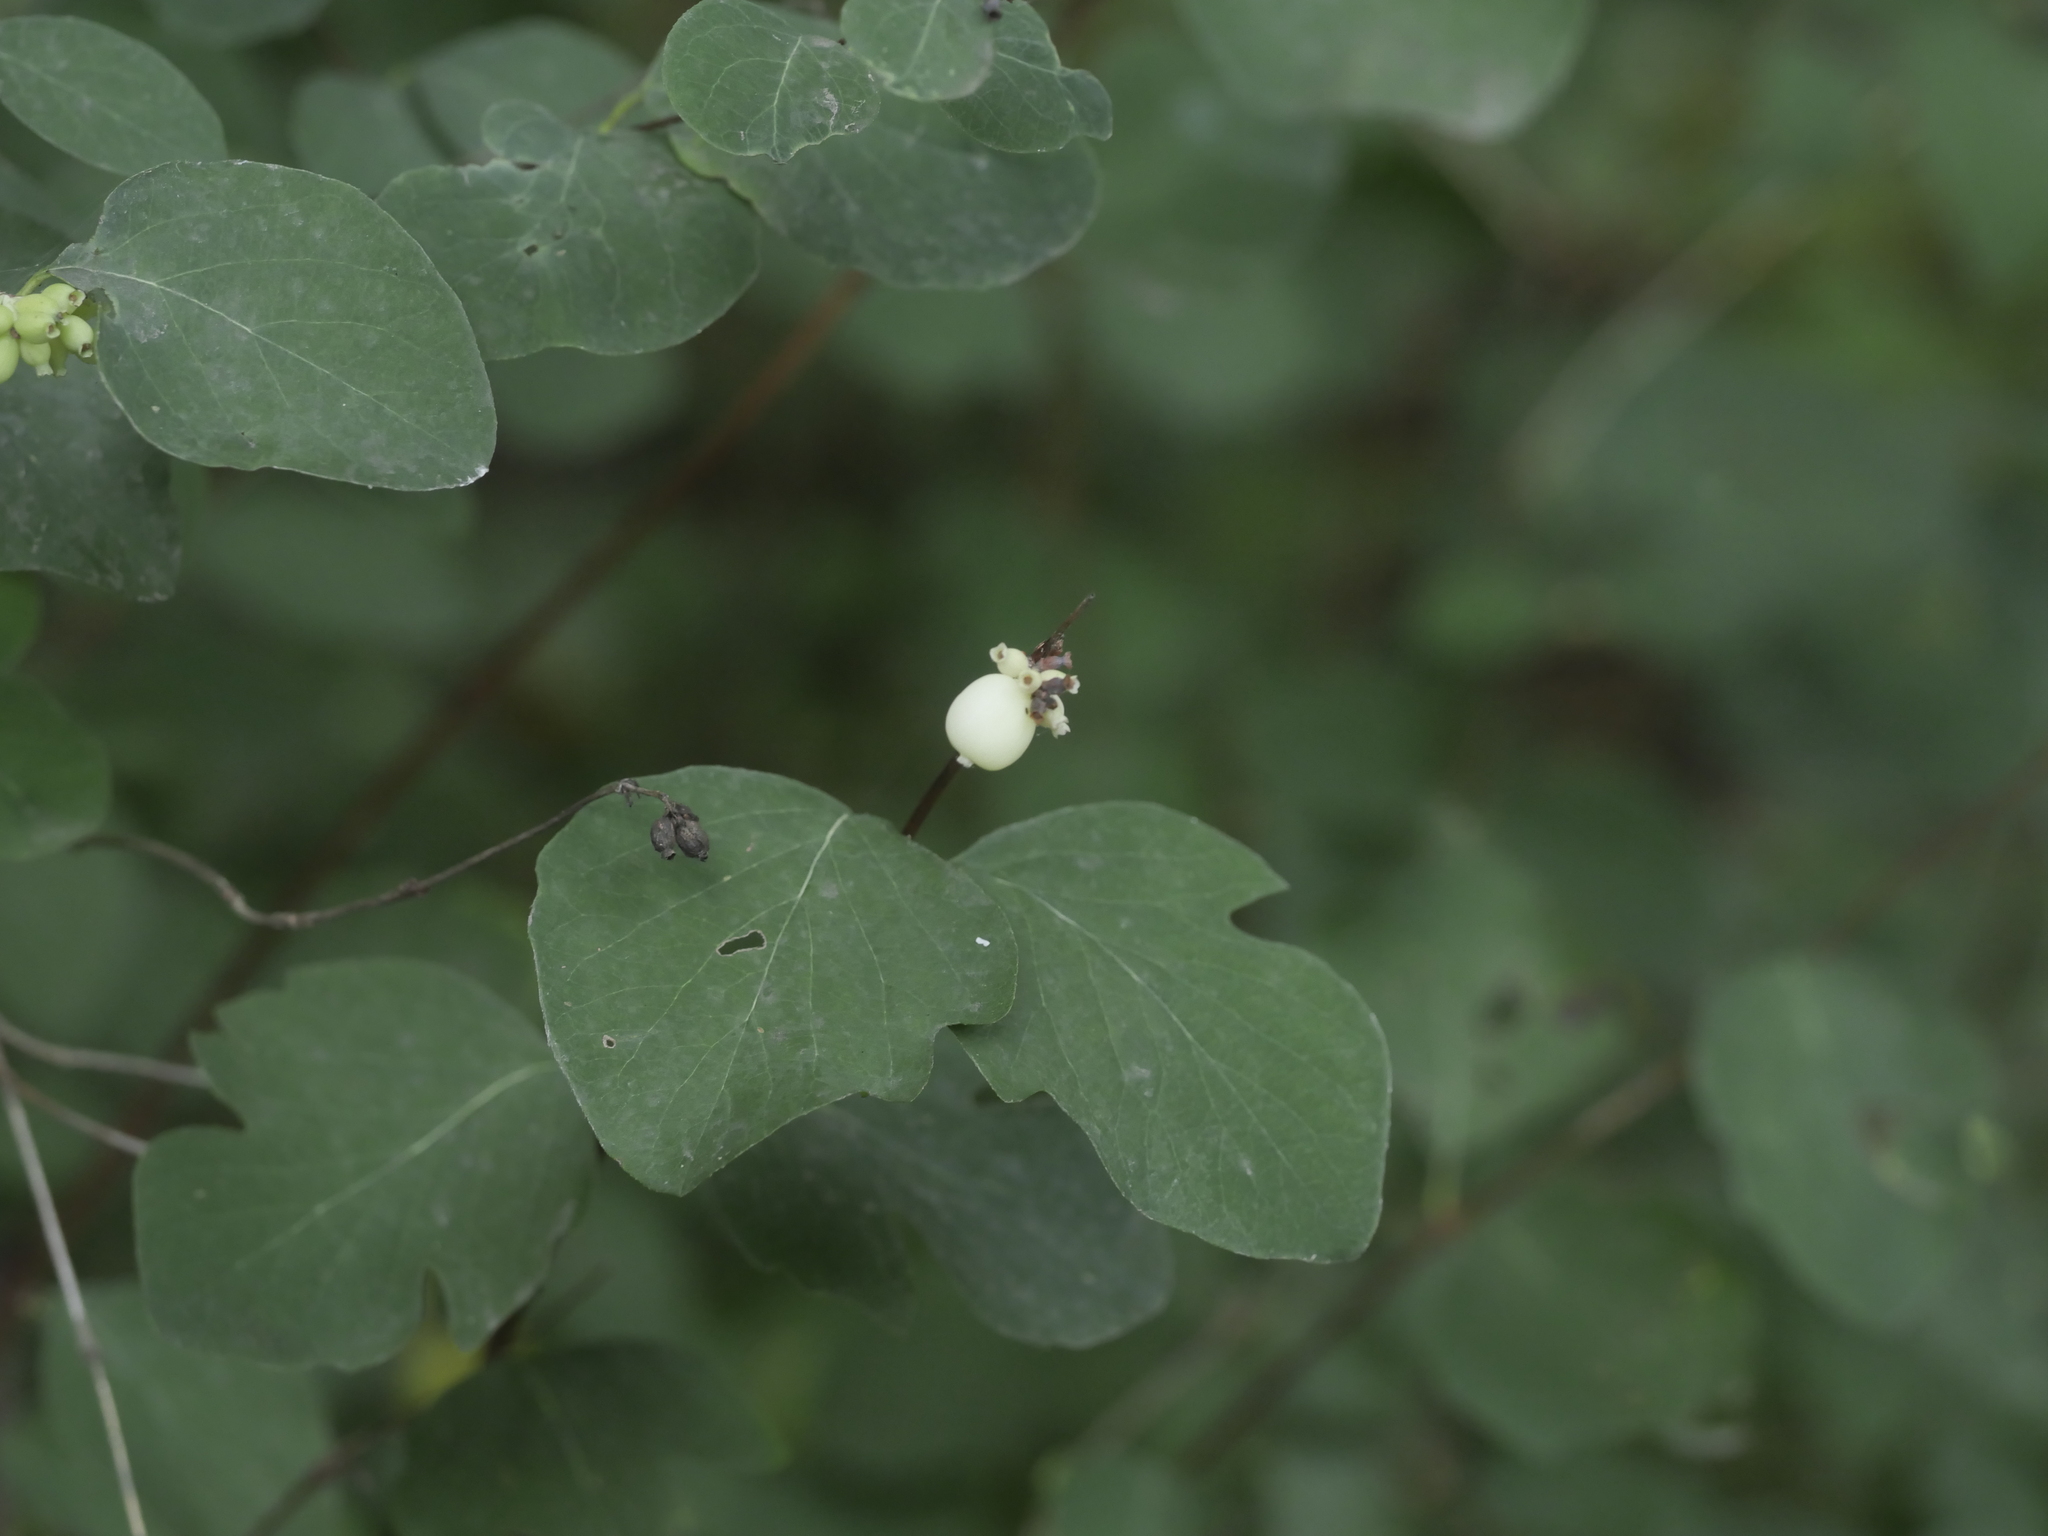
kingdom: Plantae
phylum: Tracheophyta
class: Magnoliopsida
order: Dipsacales
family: Caprifoliaceae
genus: Symphoricarpos
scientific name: Symphoricarpos albus
